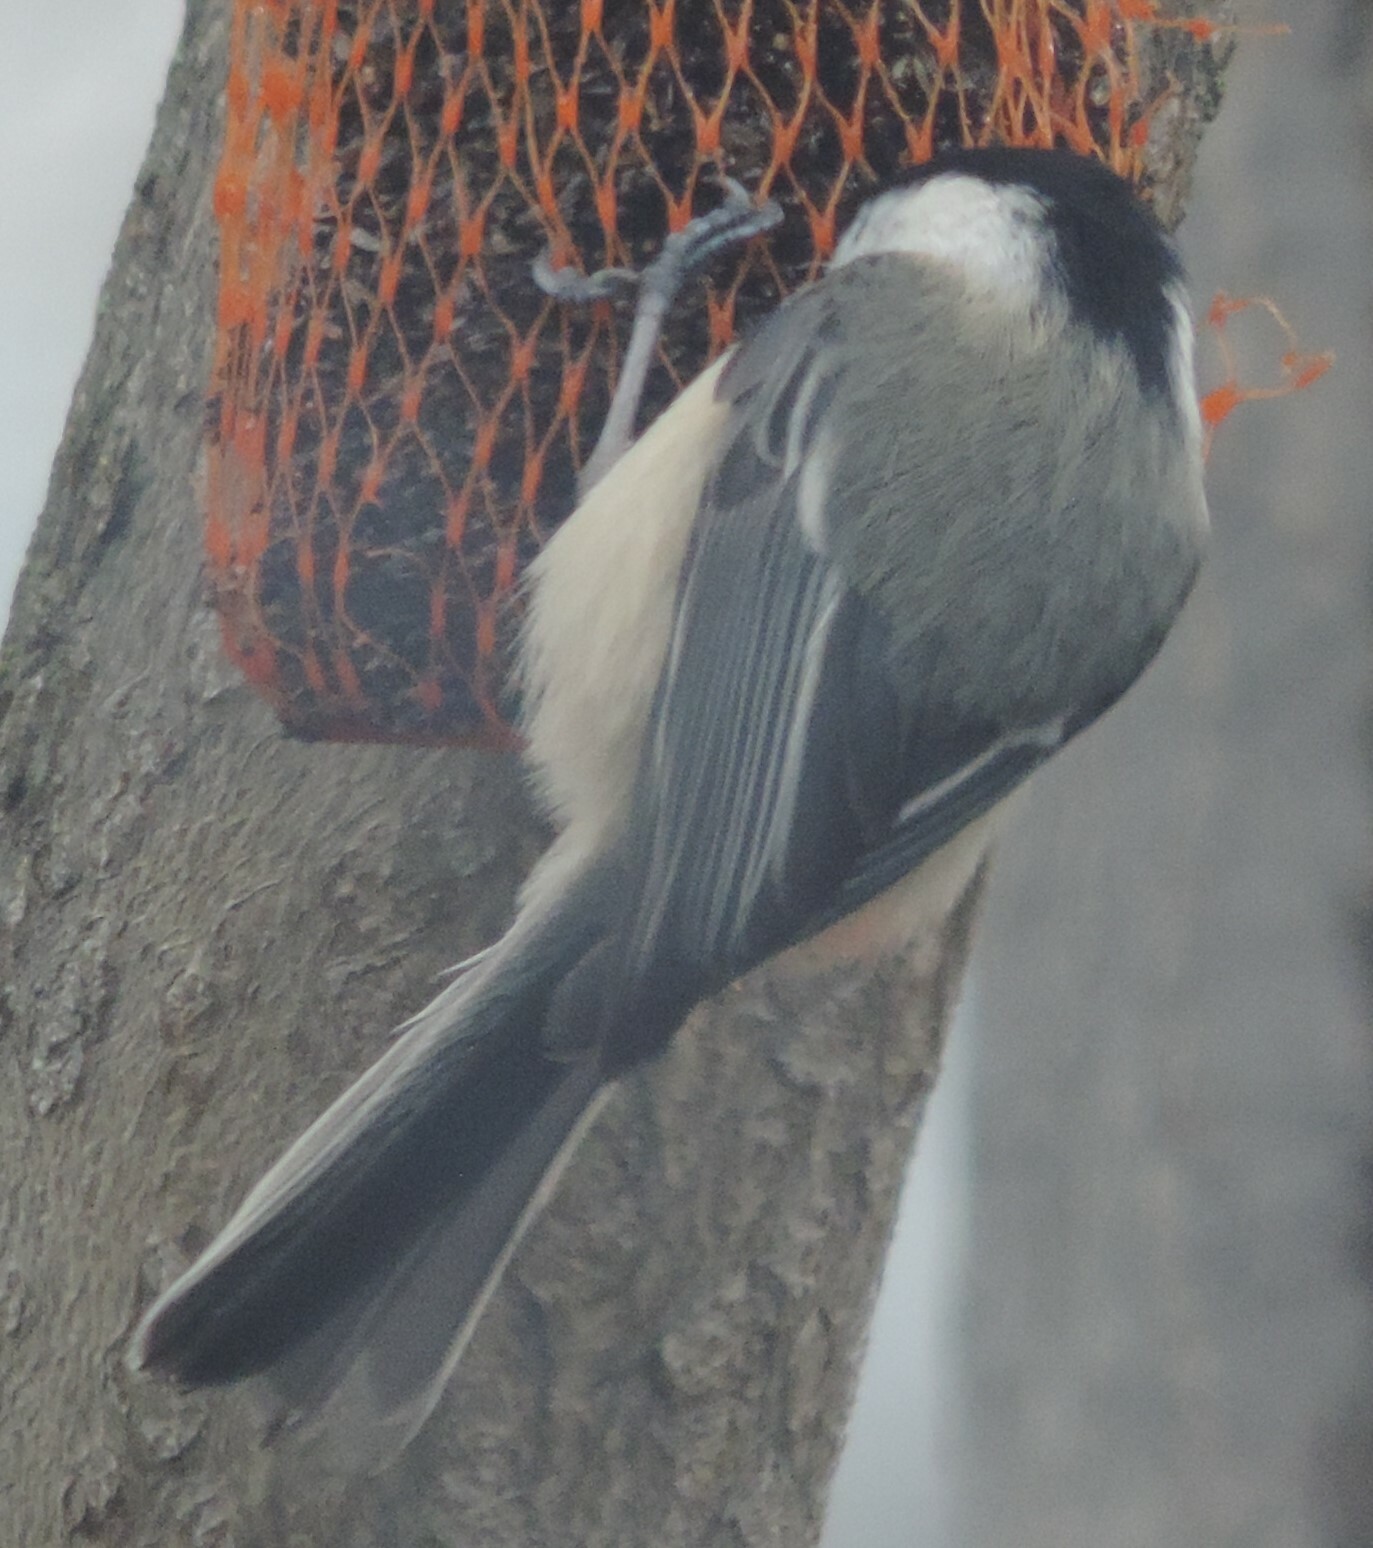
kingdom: Animalia
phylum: Chordata
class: Aves
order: Passeriformes
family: Paridae
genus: Poecile
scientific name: Poecile atricapillus
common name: Black-capped chickadee
